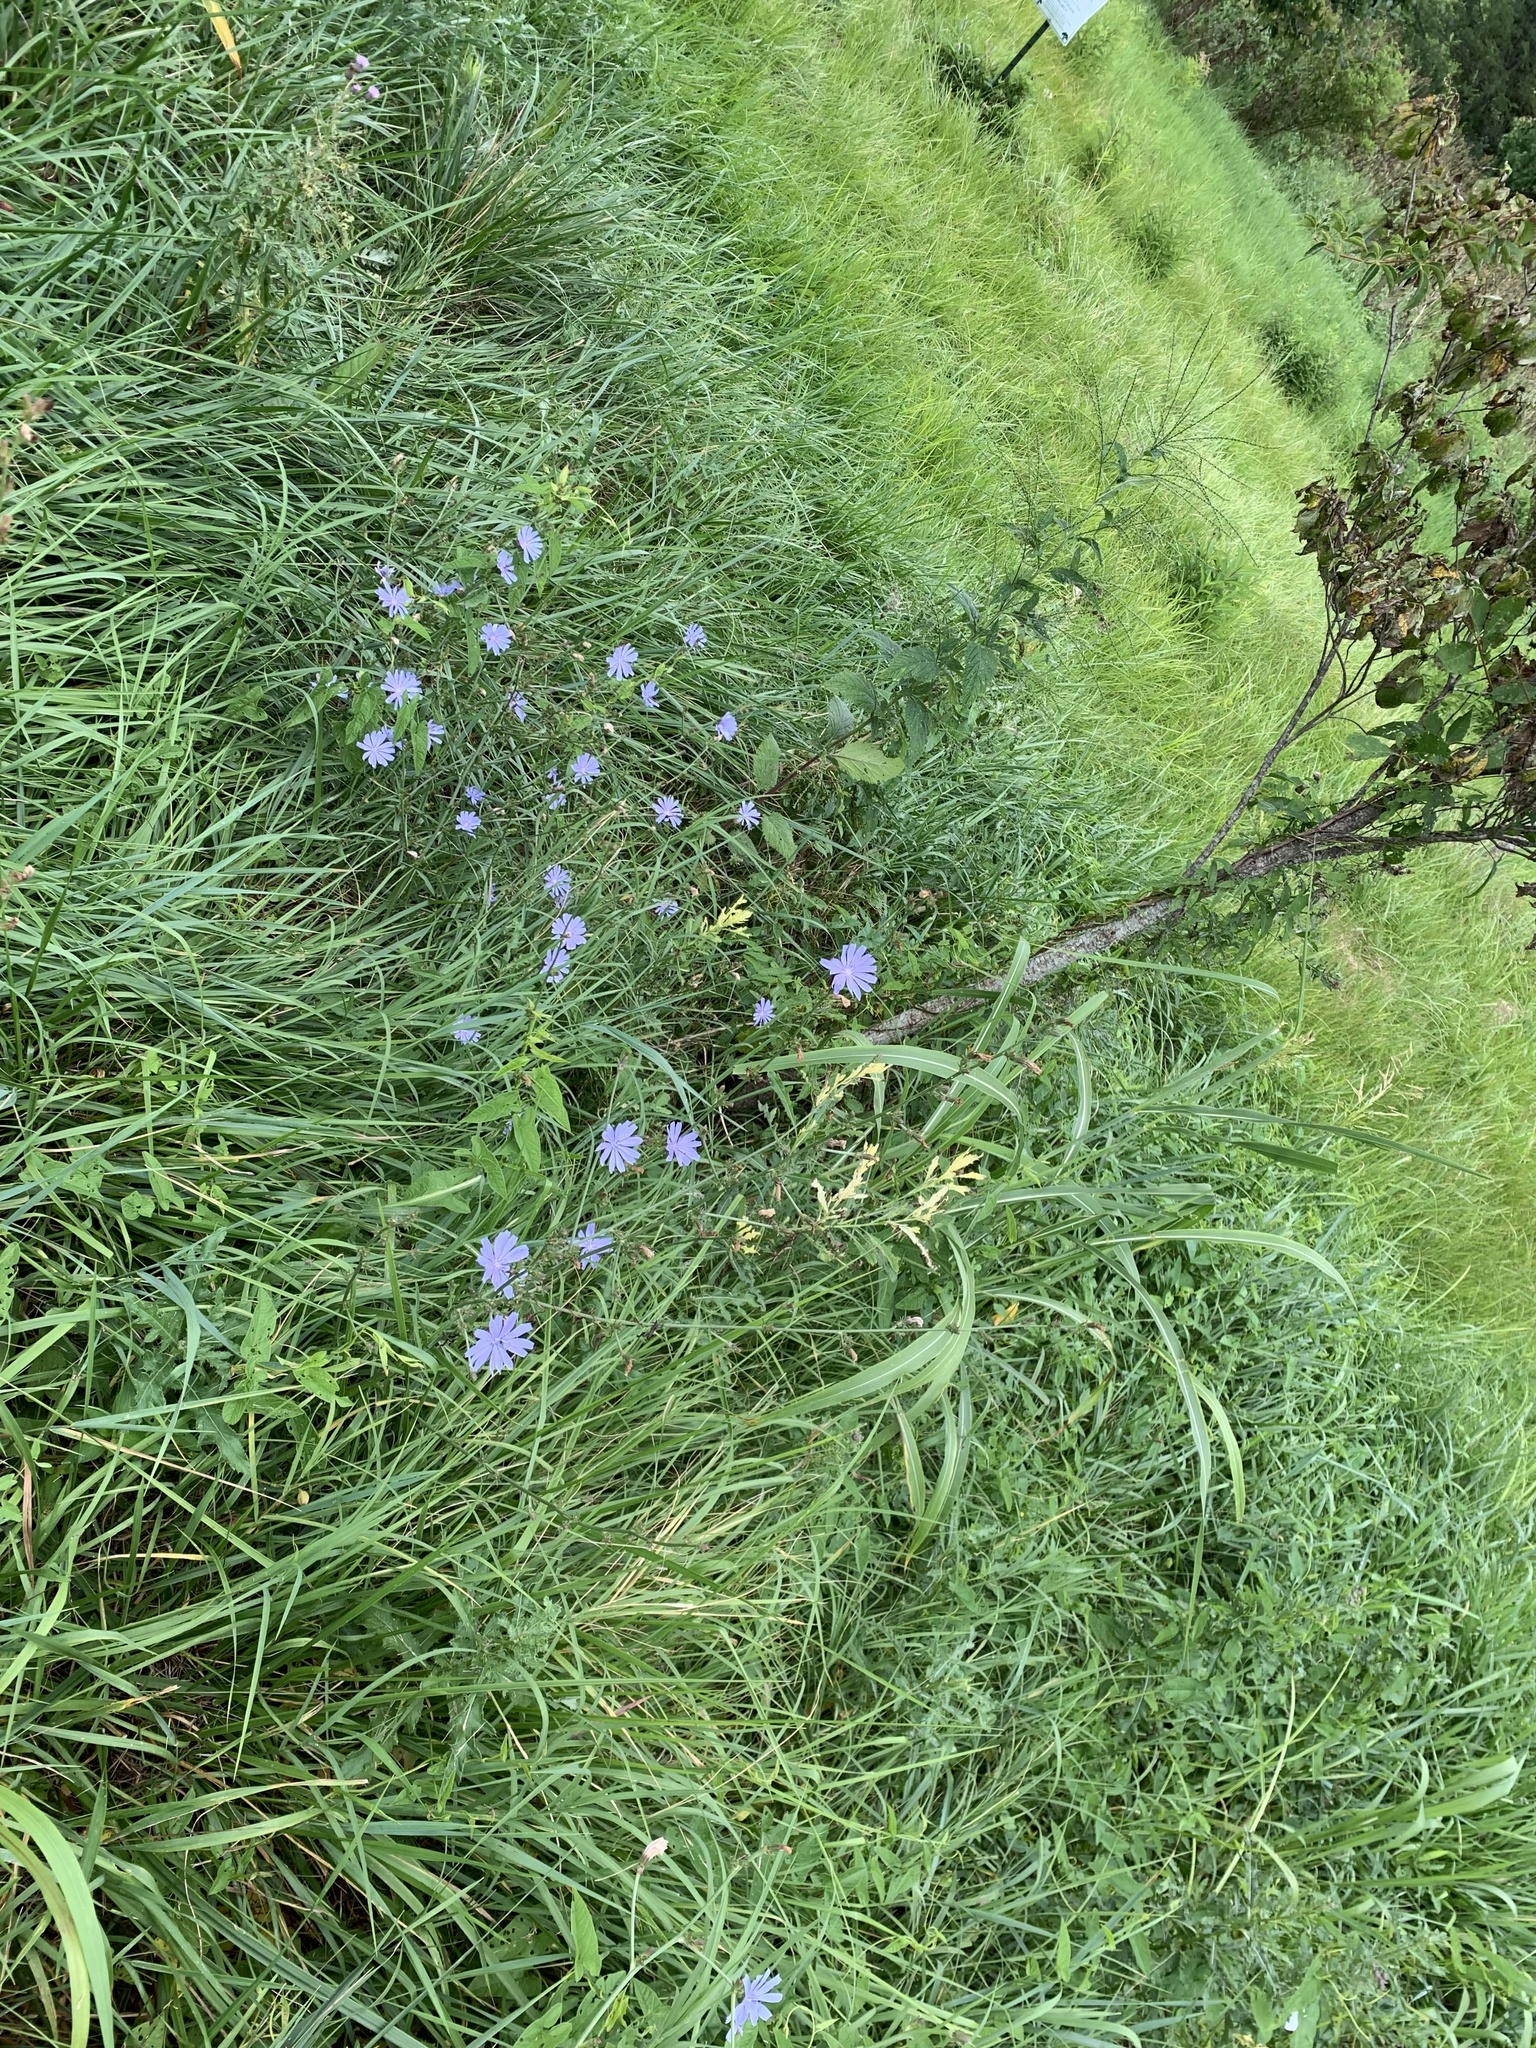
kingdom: Plantae
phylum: Tracheophyta
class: Magnoliopsida
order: Asterales
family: Asteraceae
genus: Cichorium
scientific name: Cichorium intybus
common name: Chicory
